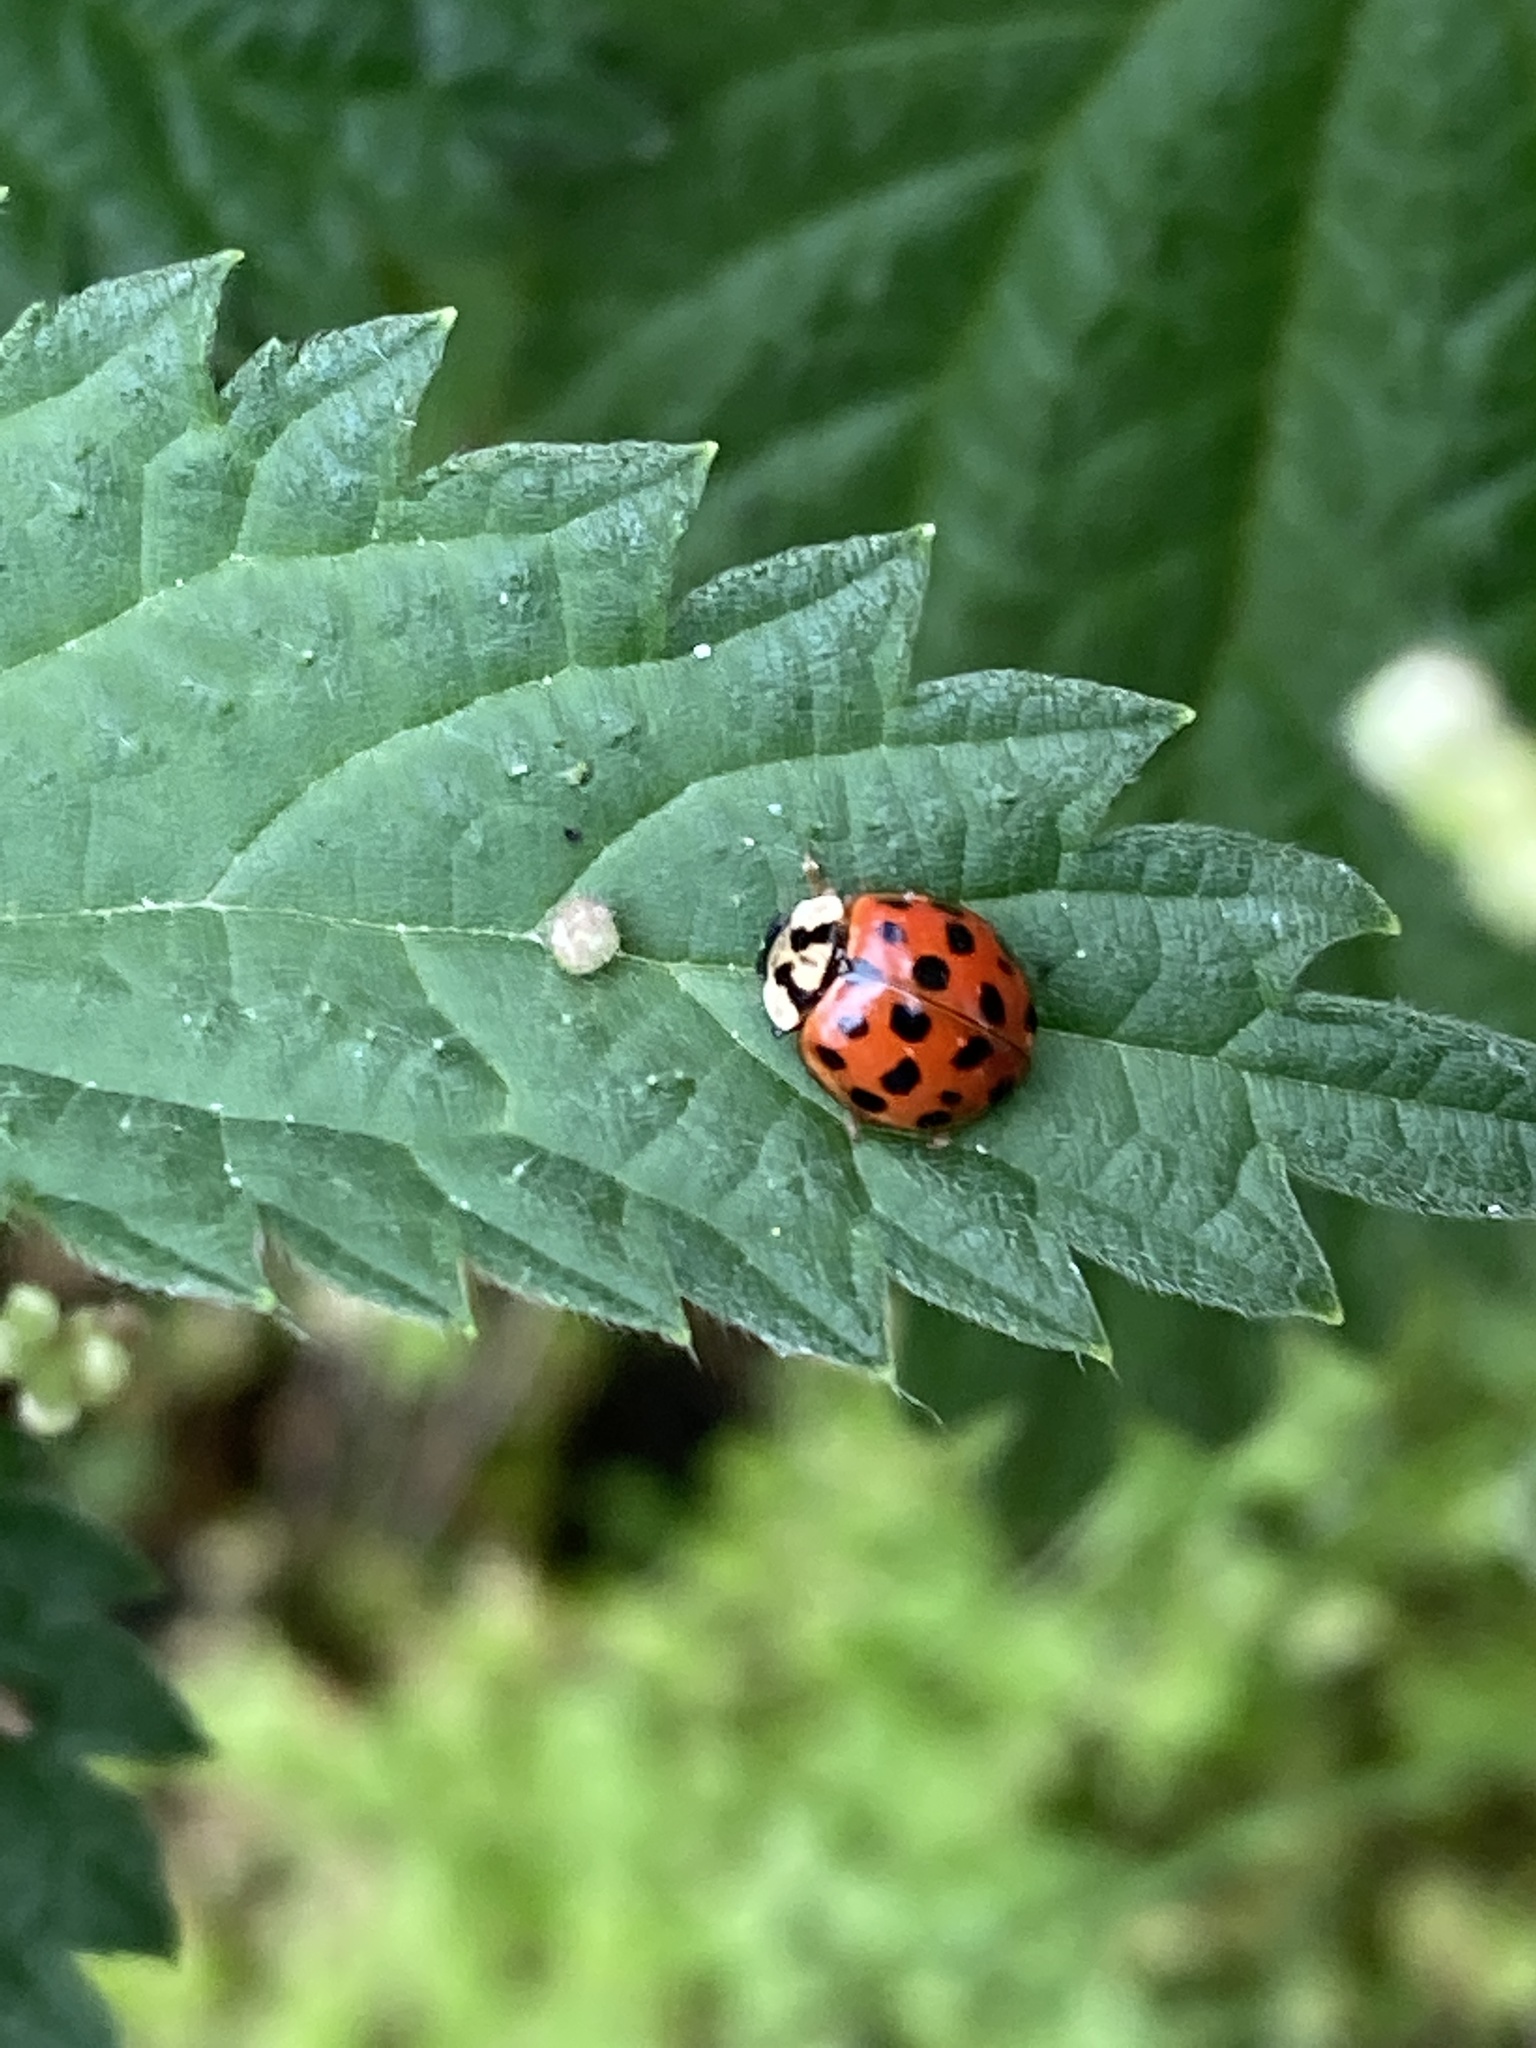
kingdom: Animalia
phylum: Arthropoda
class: Insecta
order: Coleoptera
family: Coccinellidae
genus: Harmonia
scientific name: Harmonia axyridis
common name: Harlequin ladybird
